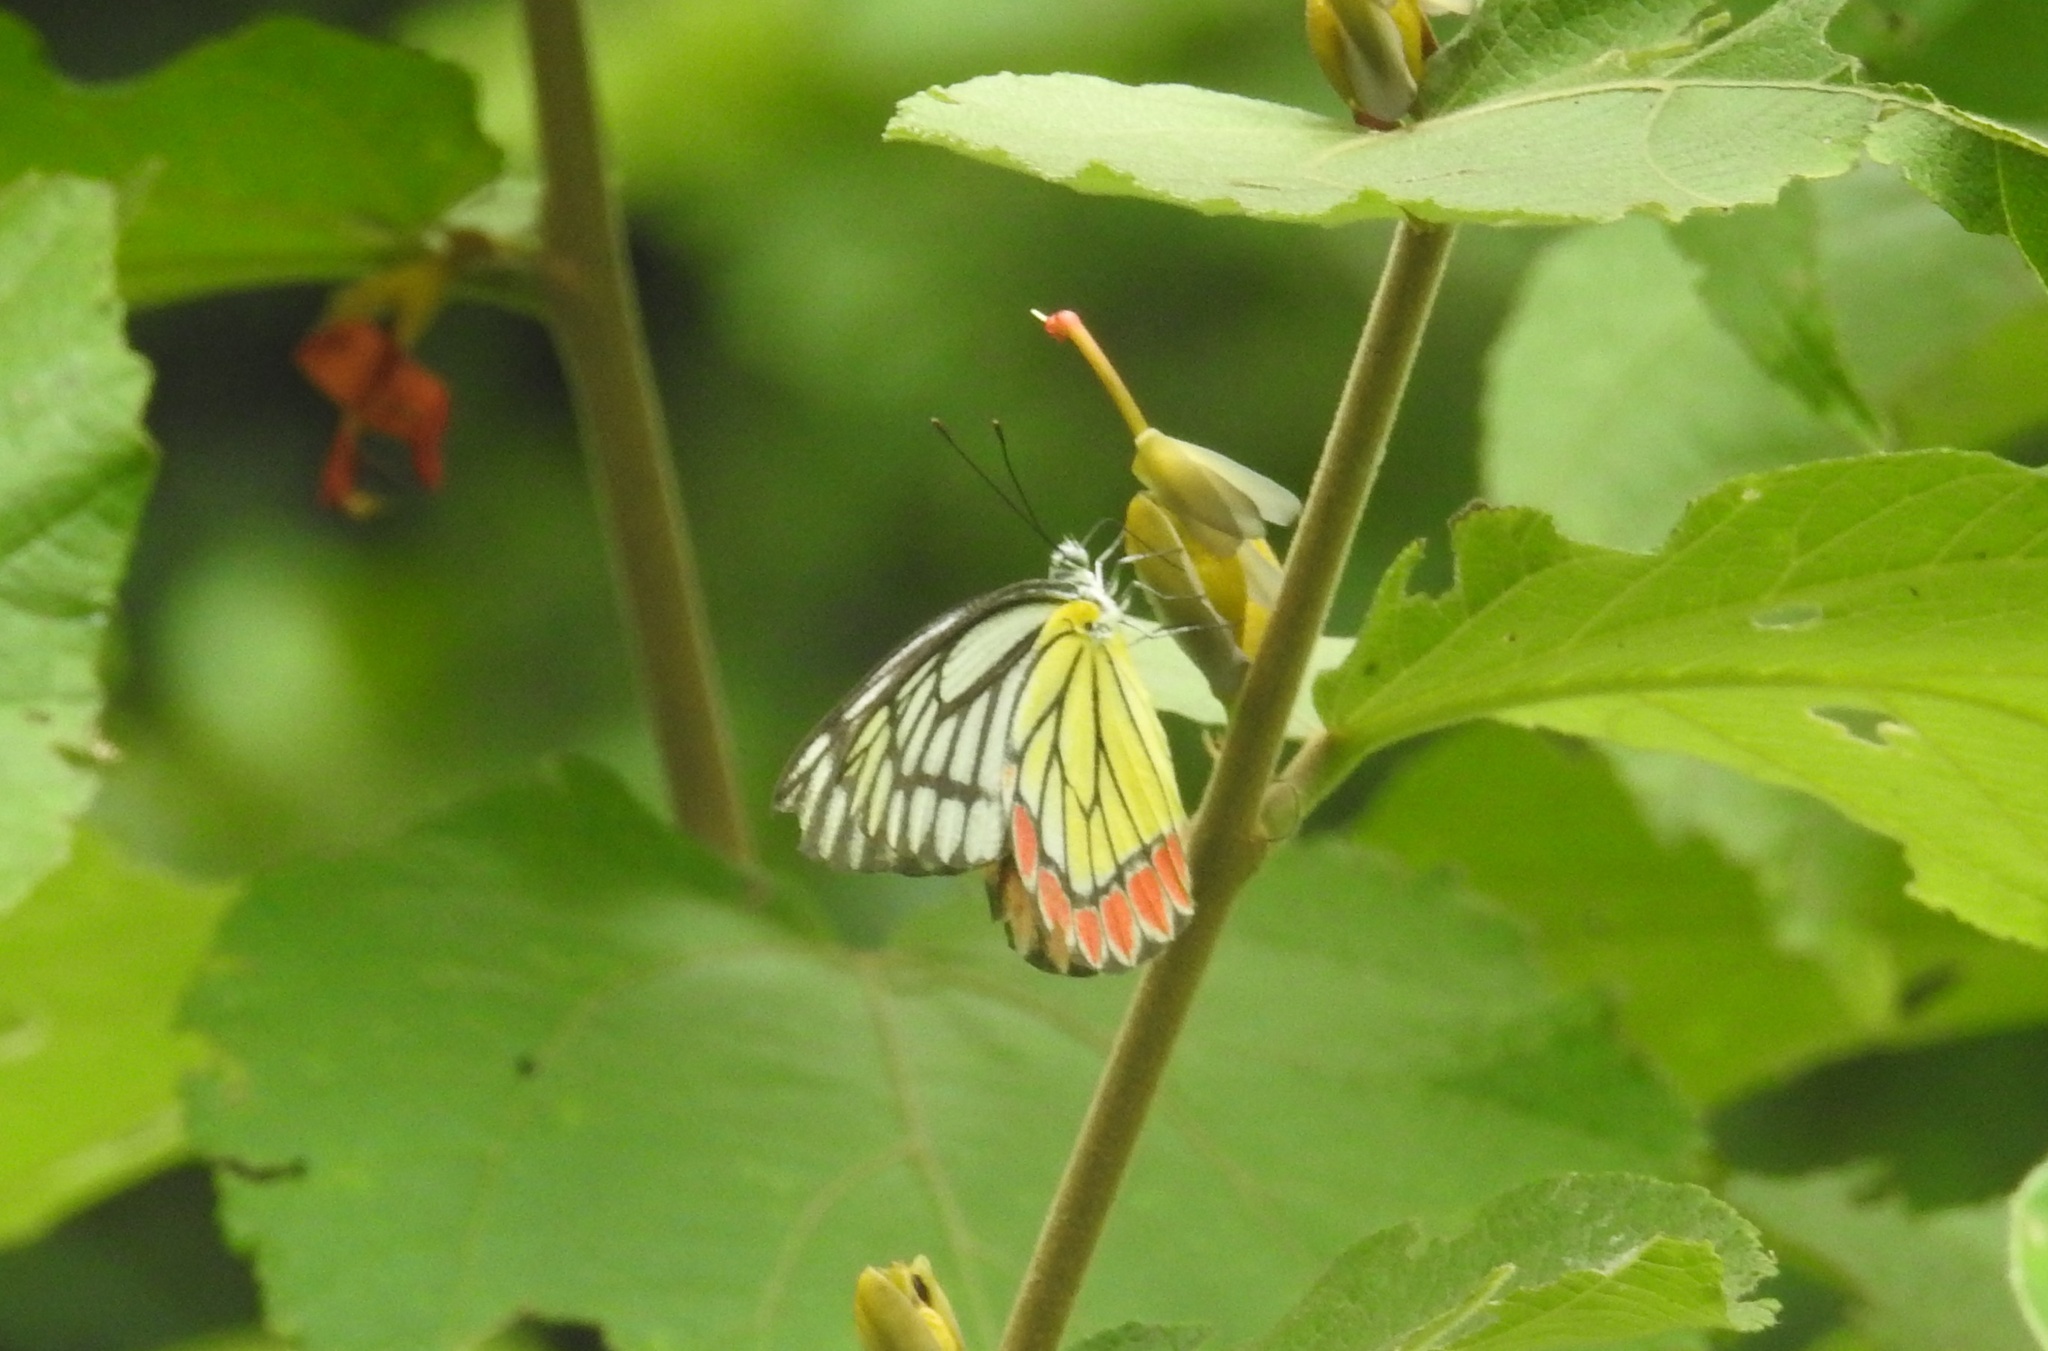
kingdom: Animalia
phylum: Arthropoda
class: Insecta
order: Lepidoptera
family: Pieridae
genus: Delias
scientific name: Delias eucharis
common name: Common jezebel
